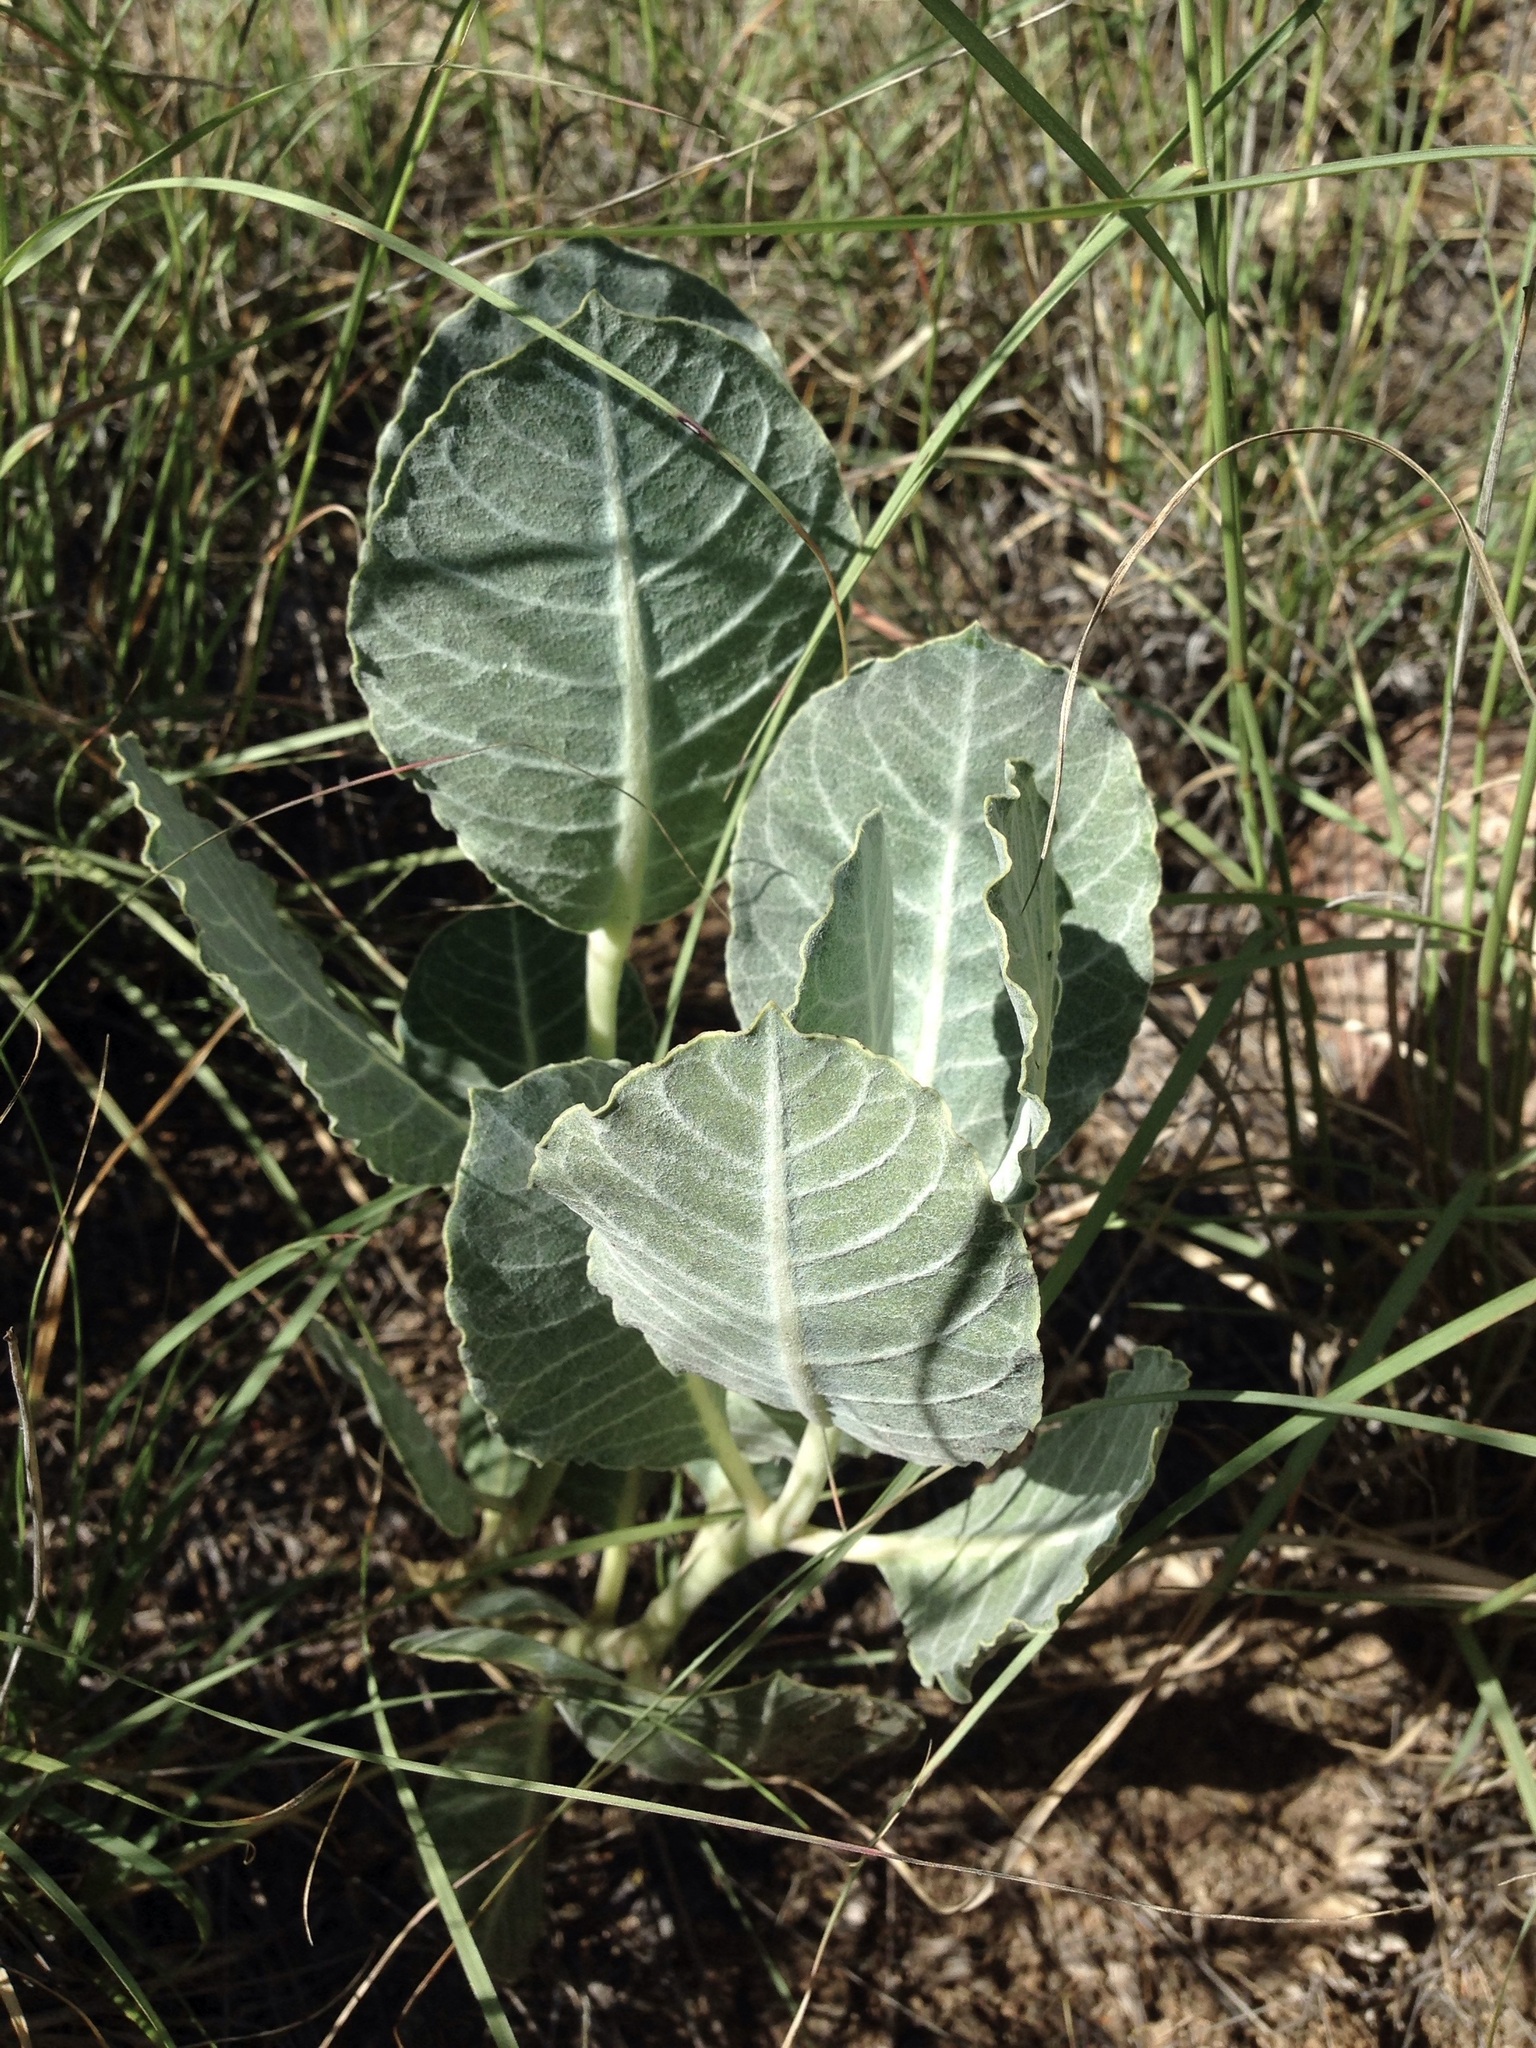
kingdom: Plantae
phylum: Tracheophyta
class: Magnoliopsida
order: Gentianales
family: Apocynaceae
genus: Asclepias
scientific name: Asclepias nummularia
